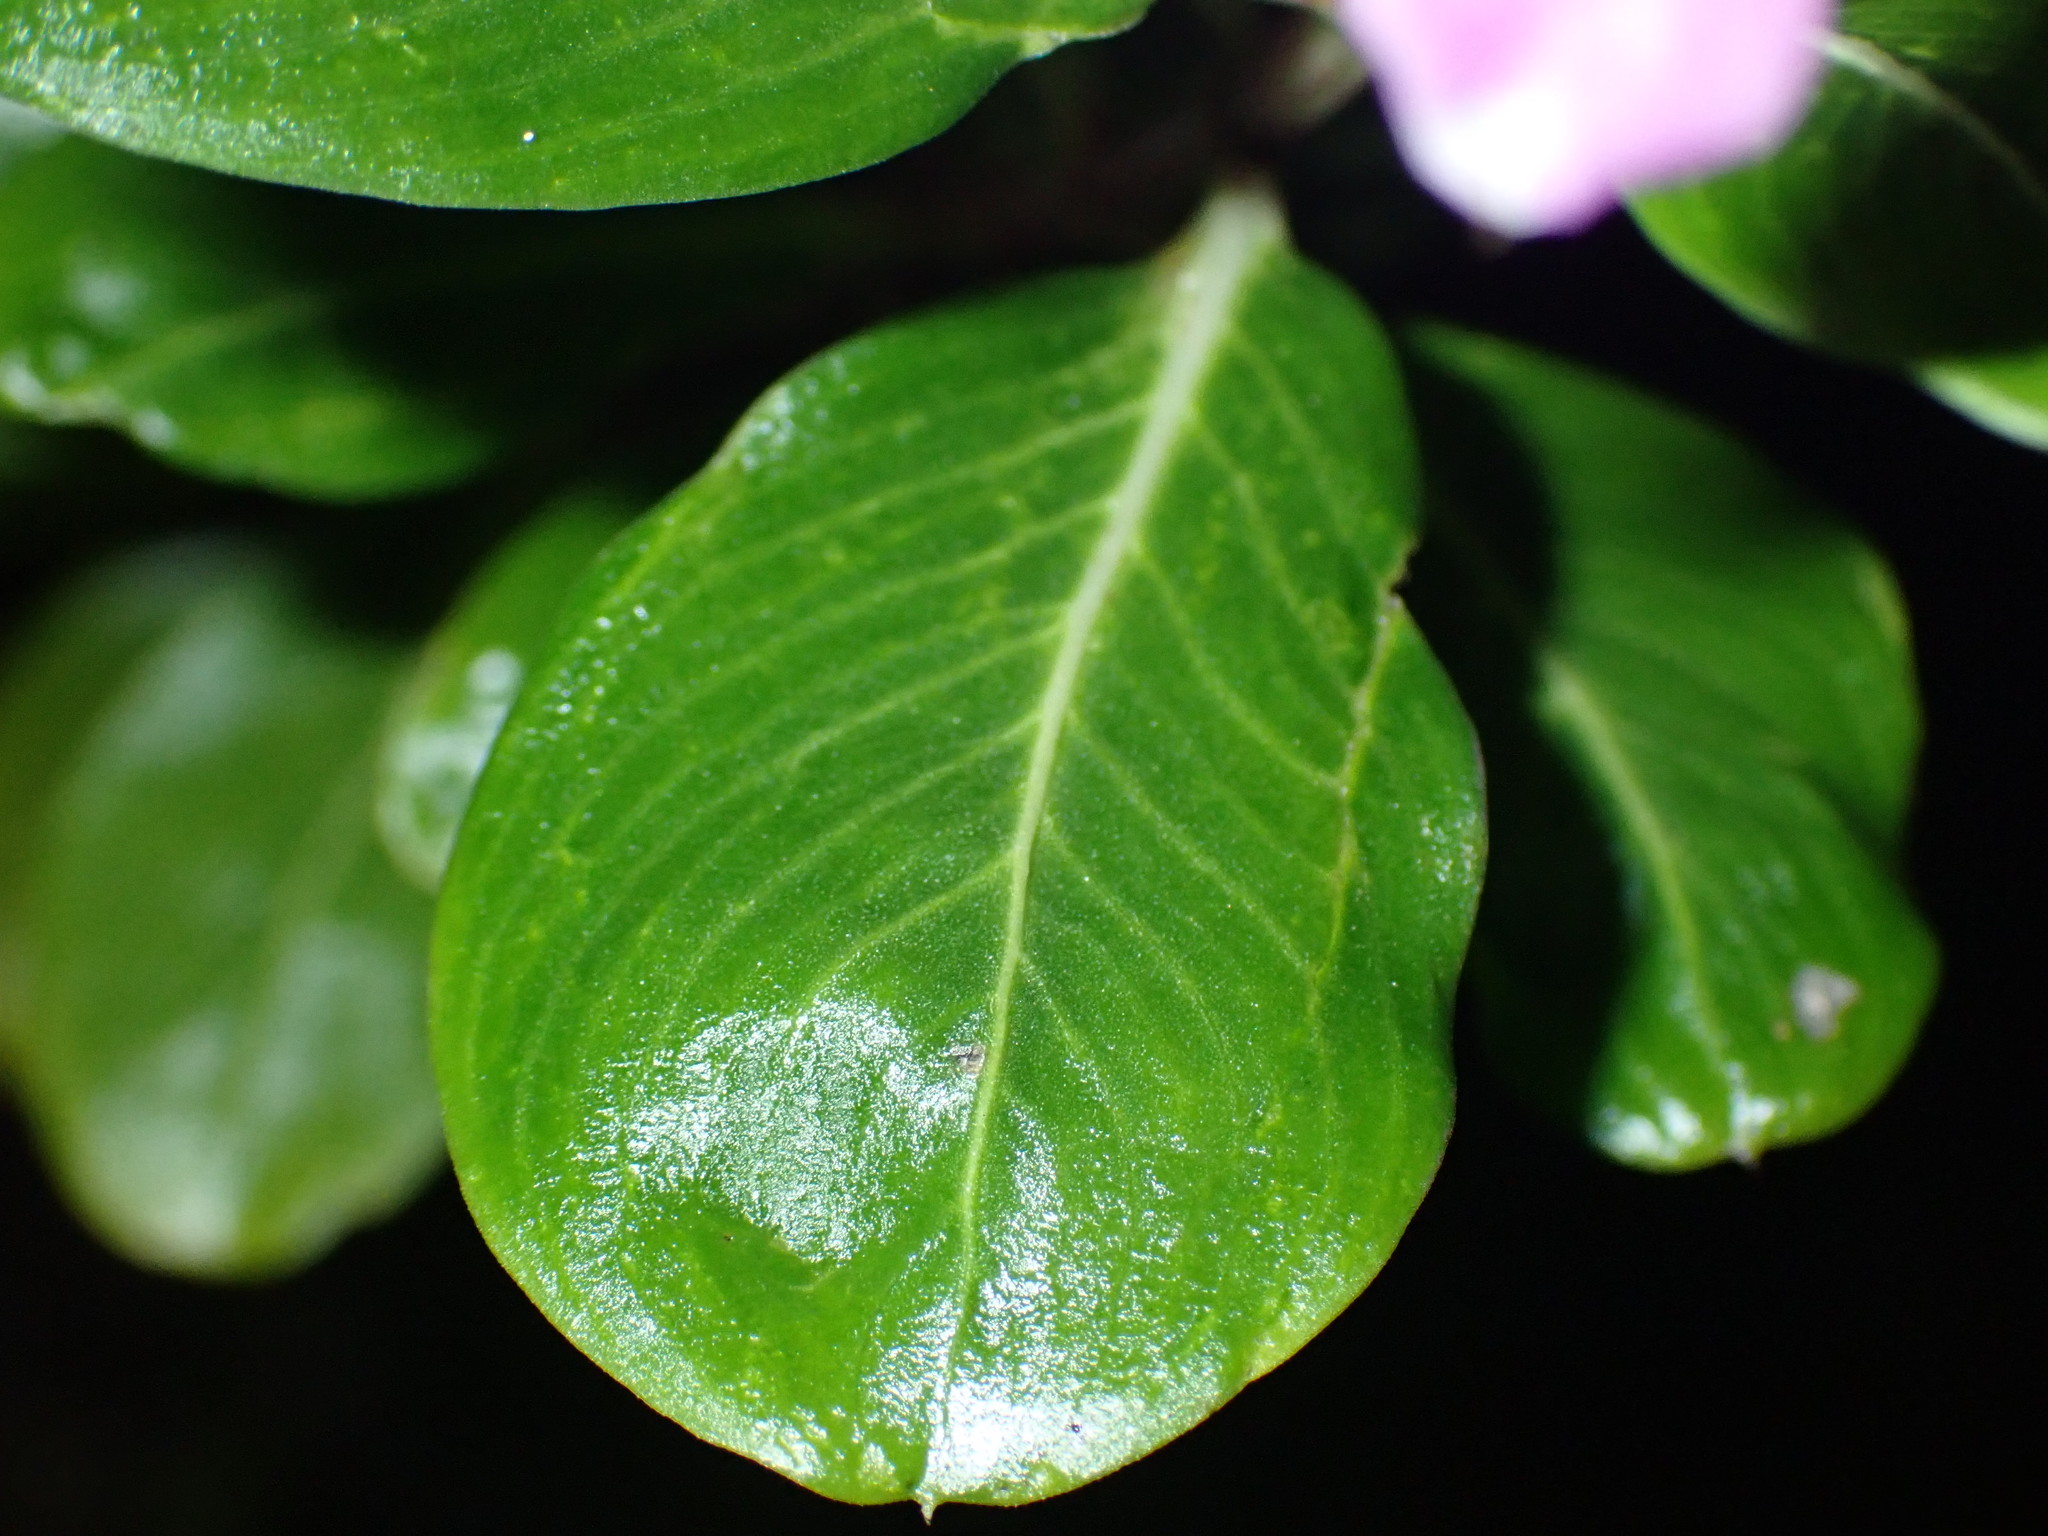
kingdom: Plantae
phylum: Tracheophyta
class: Magnoliopsida
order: Gentianales
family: Apocynaceae
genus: Catharanthus
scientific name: Catharanthus roseus
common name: Madagascar periwinkle
